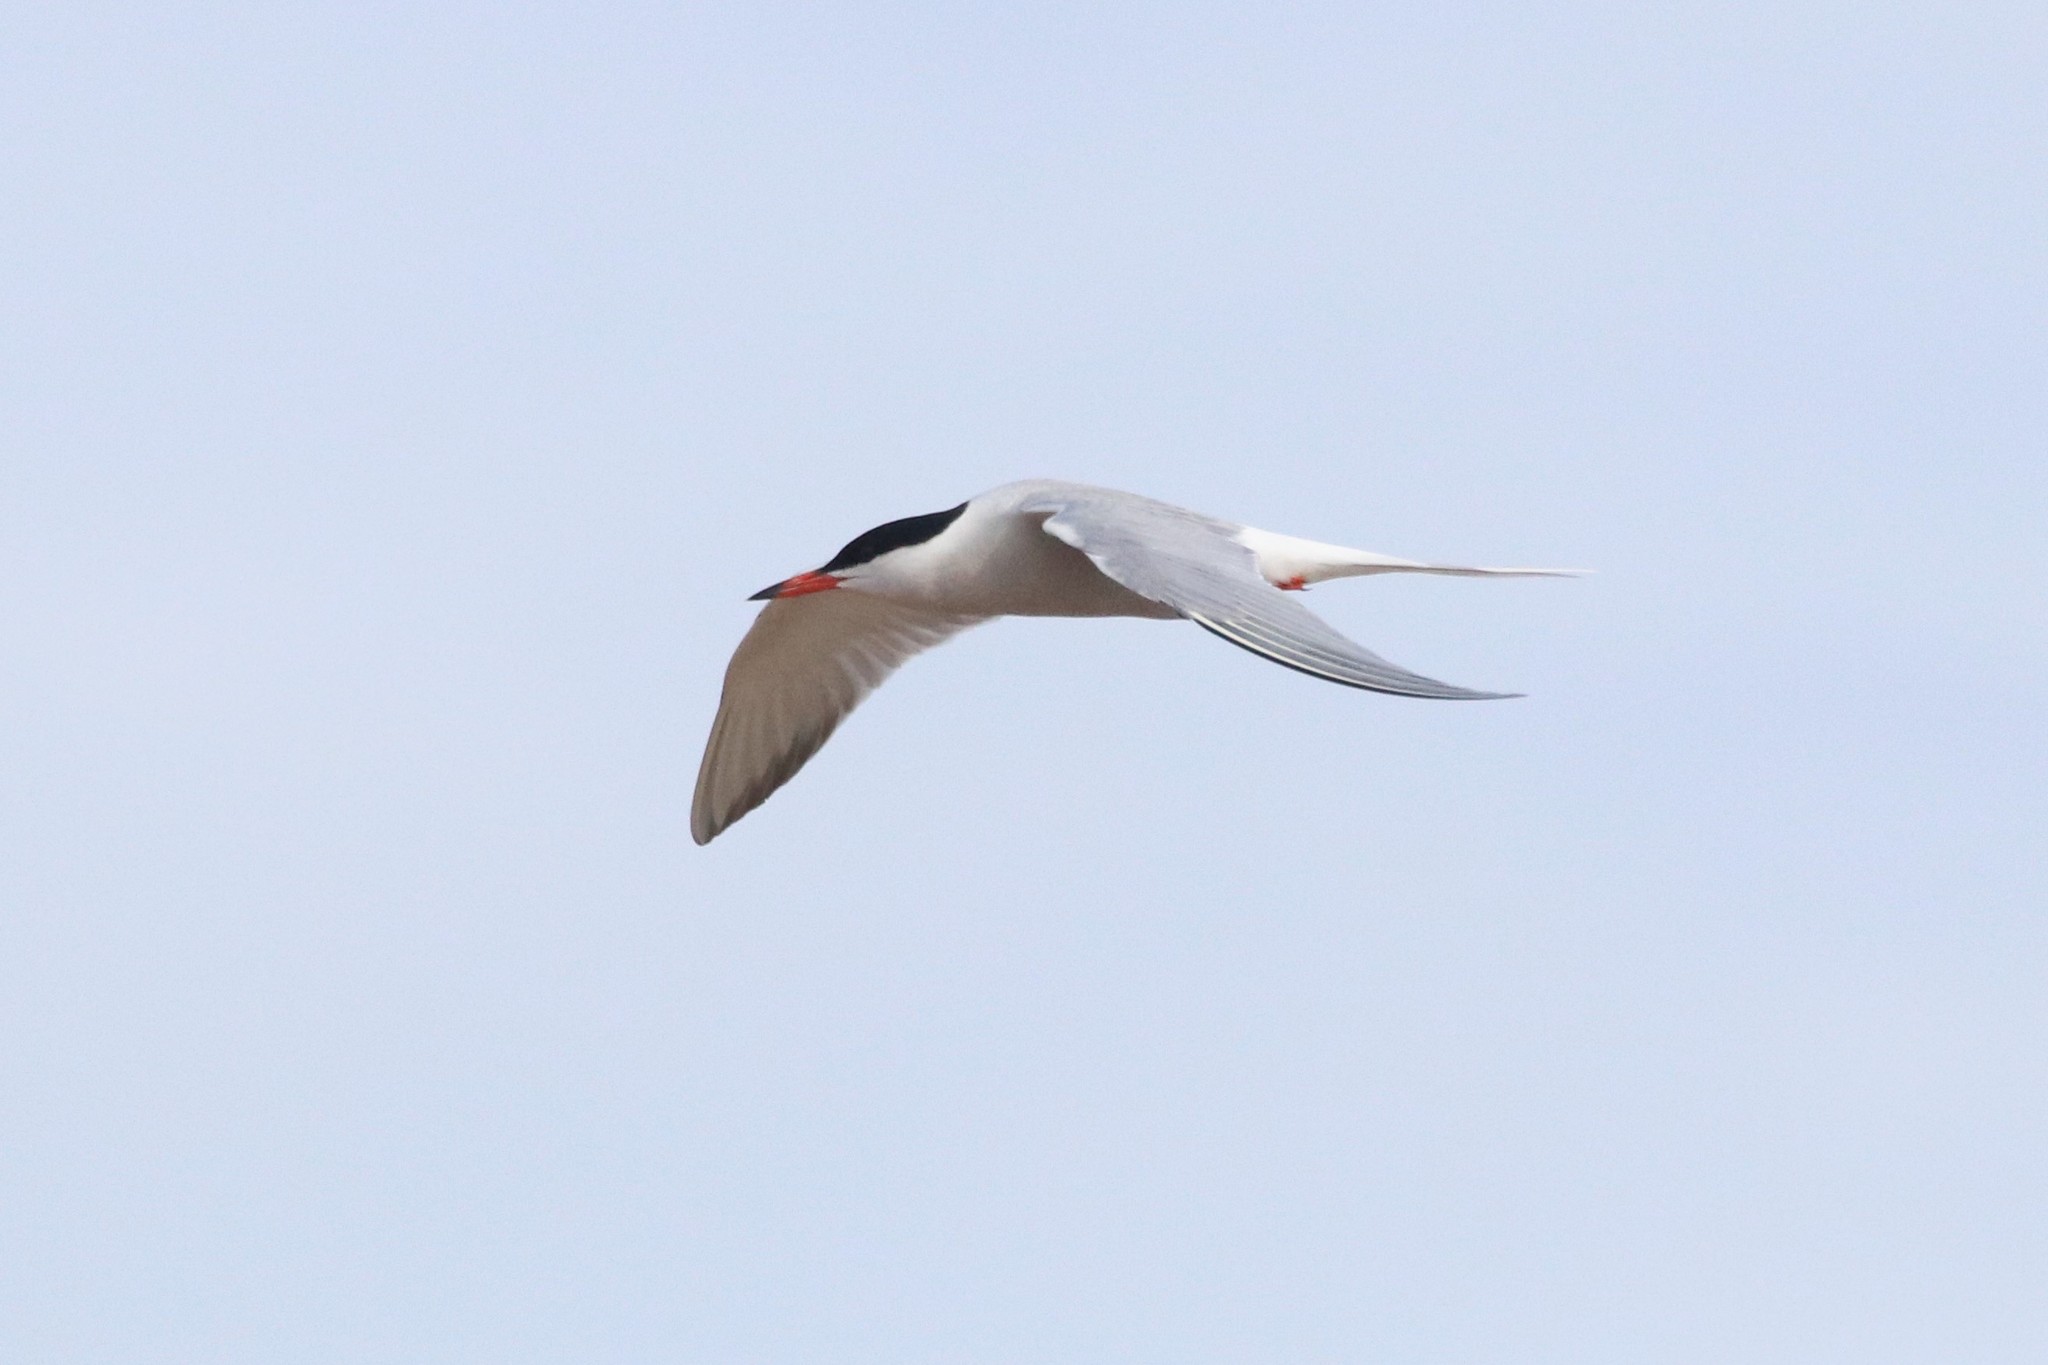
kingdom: Animalia
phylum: Chordata
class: Aves
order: Charadriiformes
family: Laridae
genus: Sterna
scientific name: Sterna hirundo
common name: Common tern
